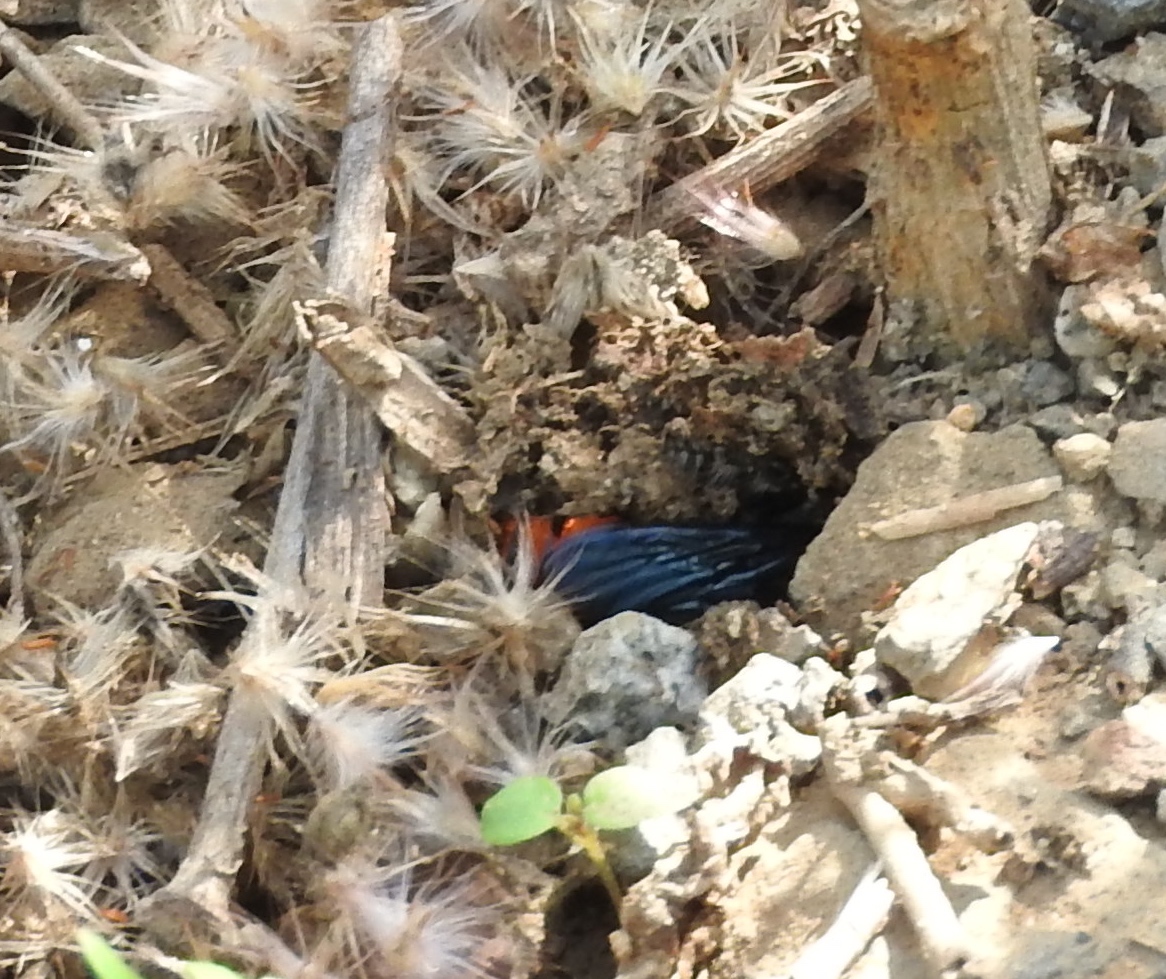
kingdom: Animalia
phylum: Arthropoda
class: Insecta
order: Hymenoptera
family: Scoliidae
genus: Dielis
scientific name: Dielis tolteca
